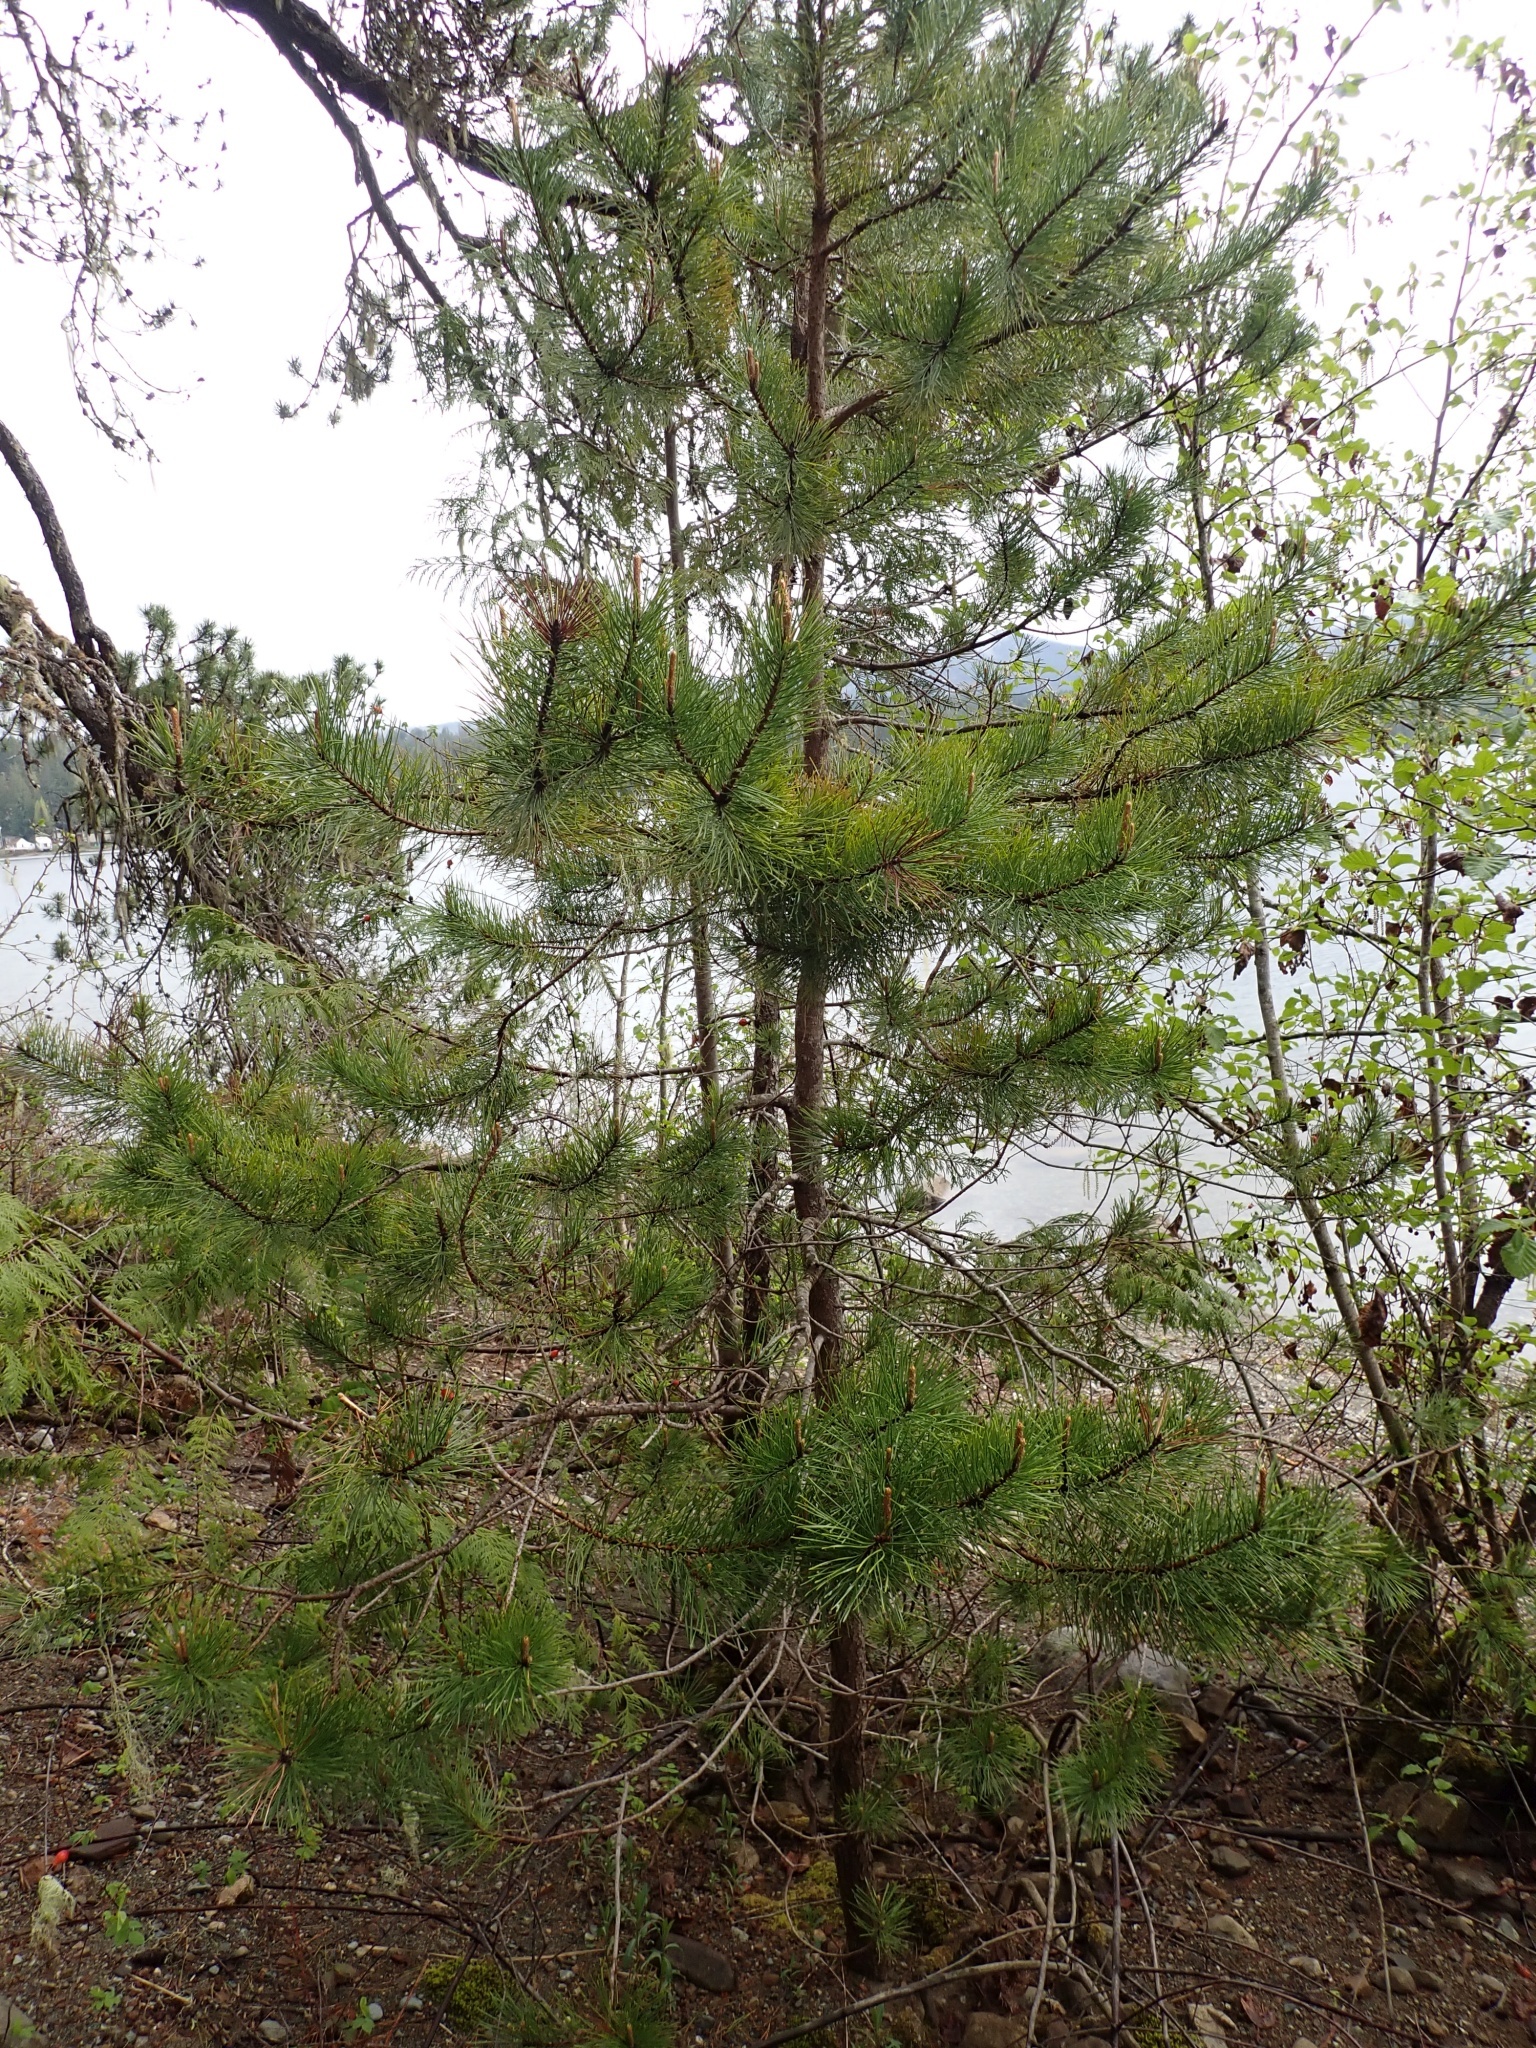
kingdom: Plantae
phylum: Tracheophyta
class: Pinopsida
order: Pinales
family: Pinaceae
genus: Pinus
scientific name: Pinus contorta
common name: Lodgepole pine
